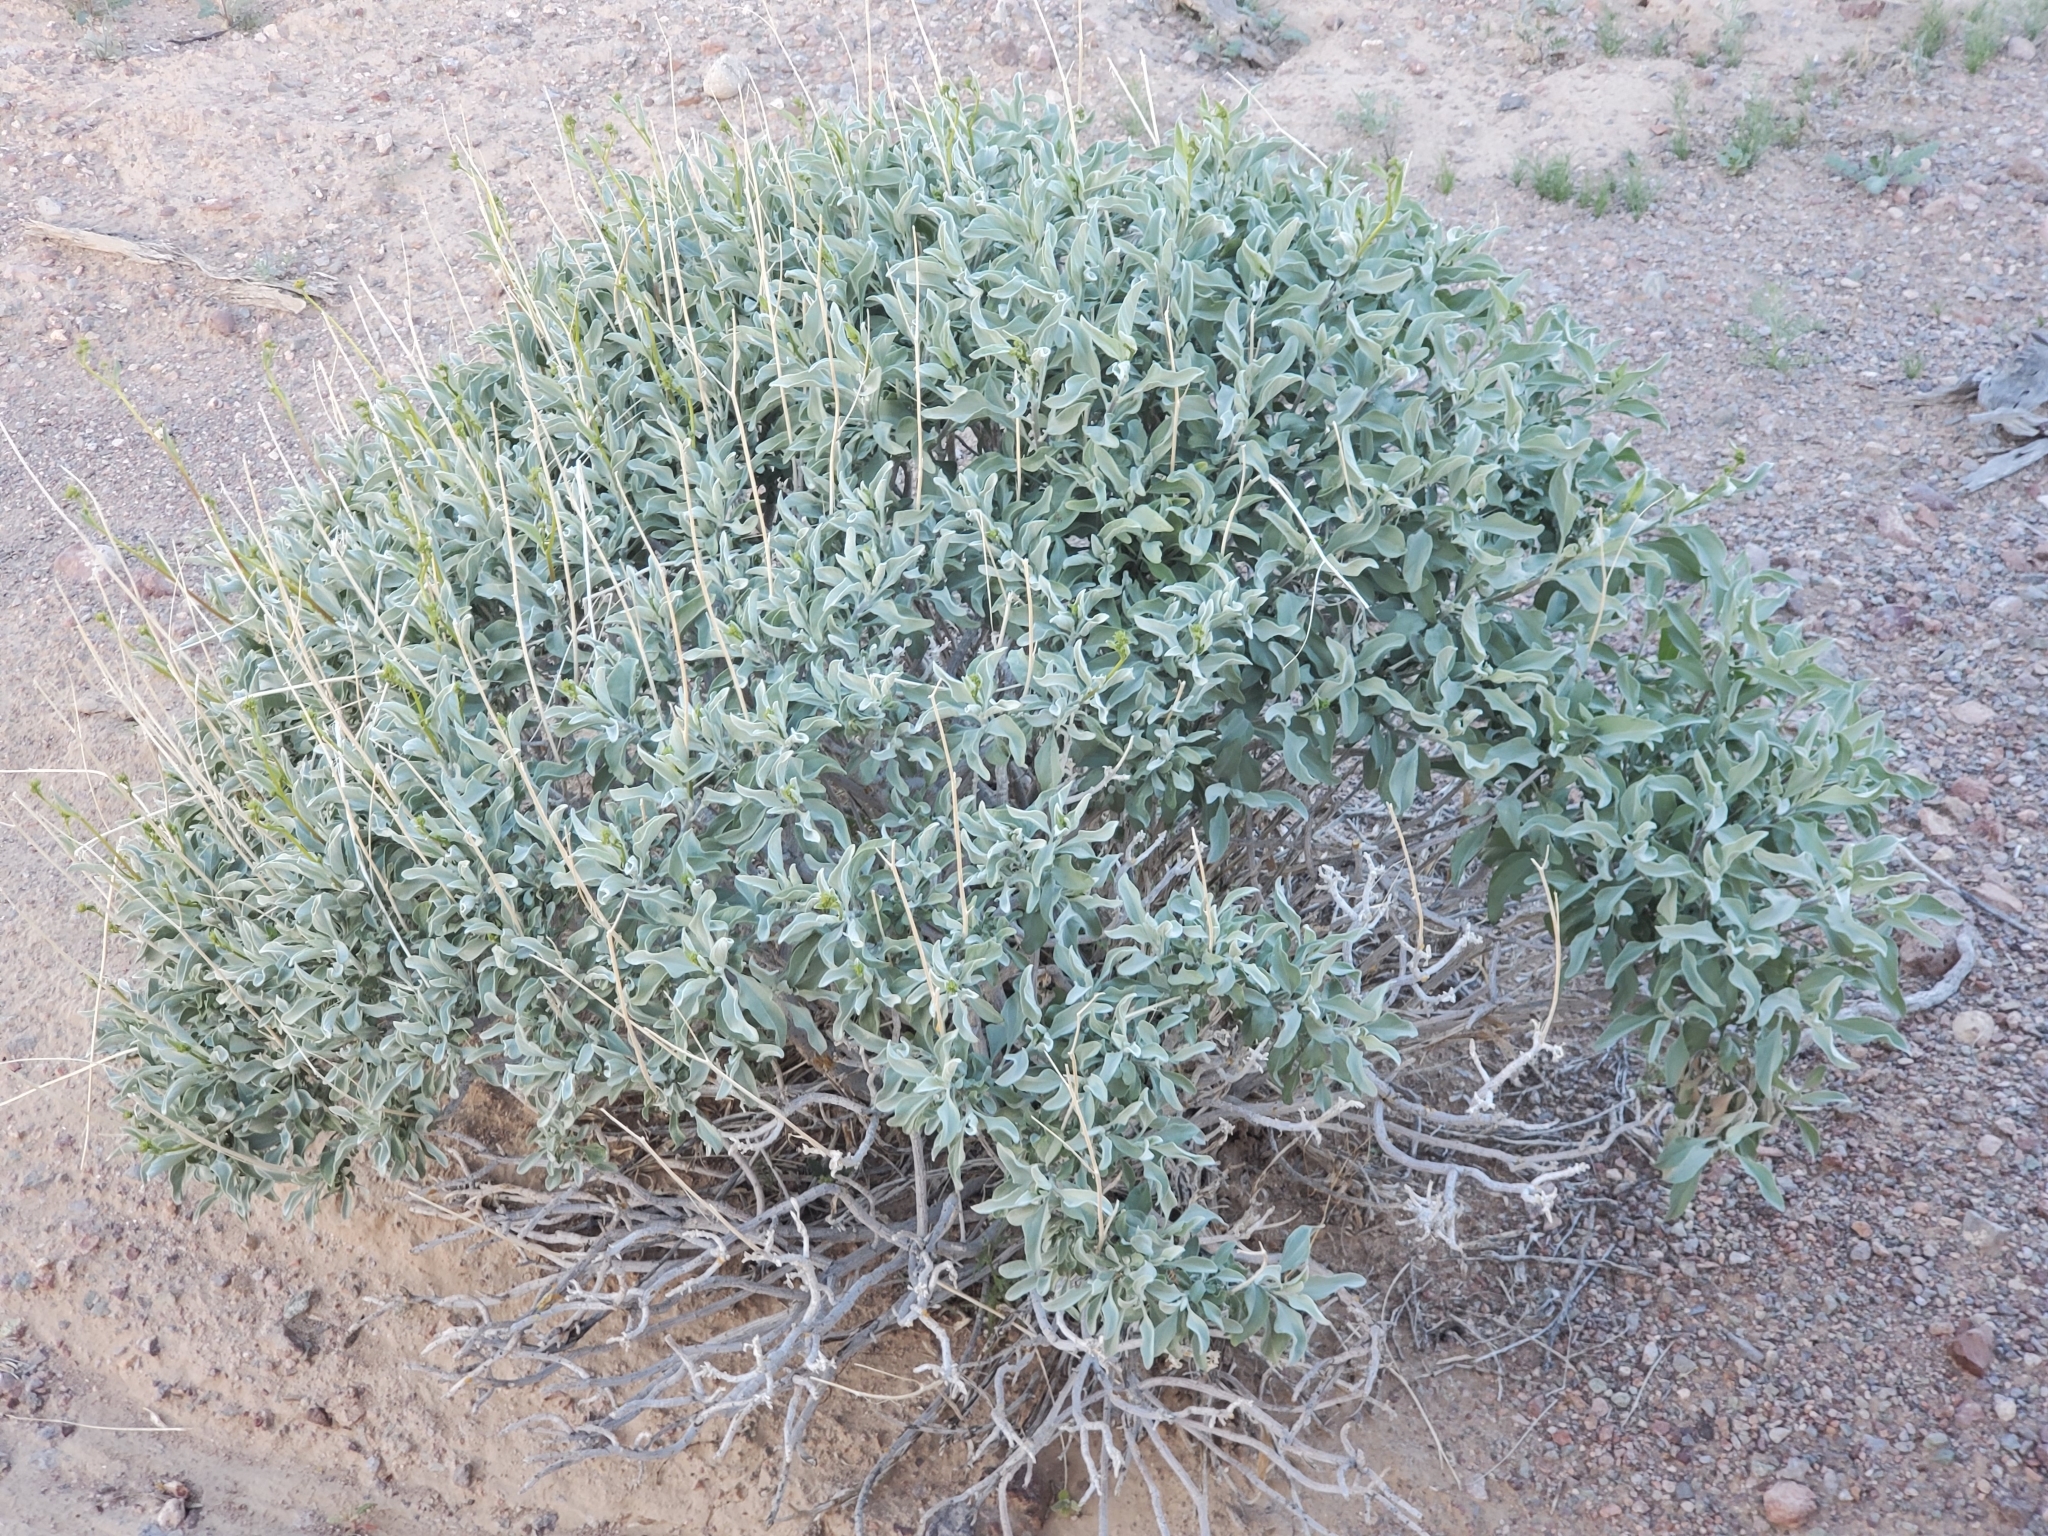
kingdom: Plantae
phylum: Tracheophyta
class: Magnoliopsida
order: Asterales
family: Asteraceae
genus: Encelia
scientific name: Encelia farinosa
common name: Brittlebush
